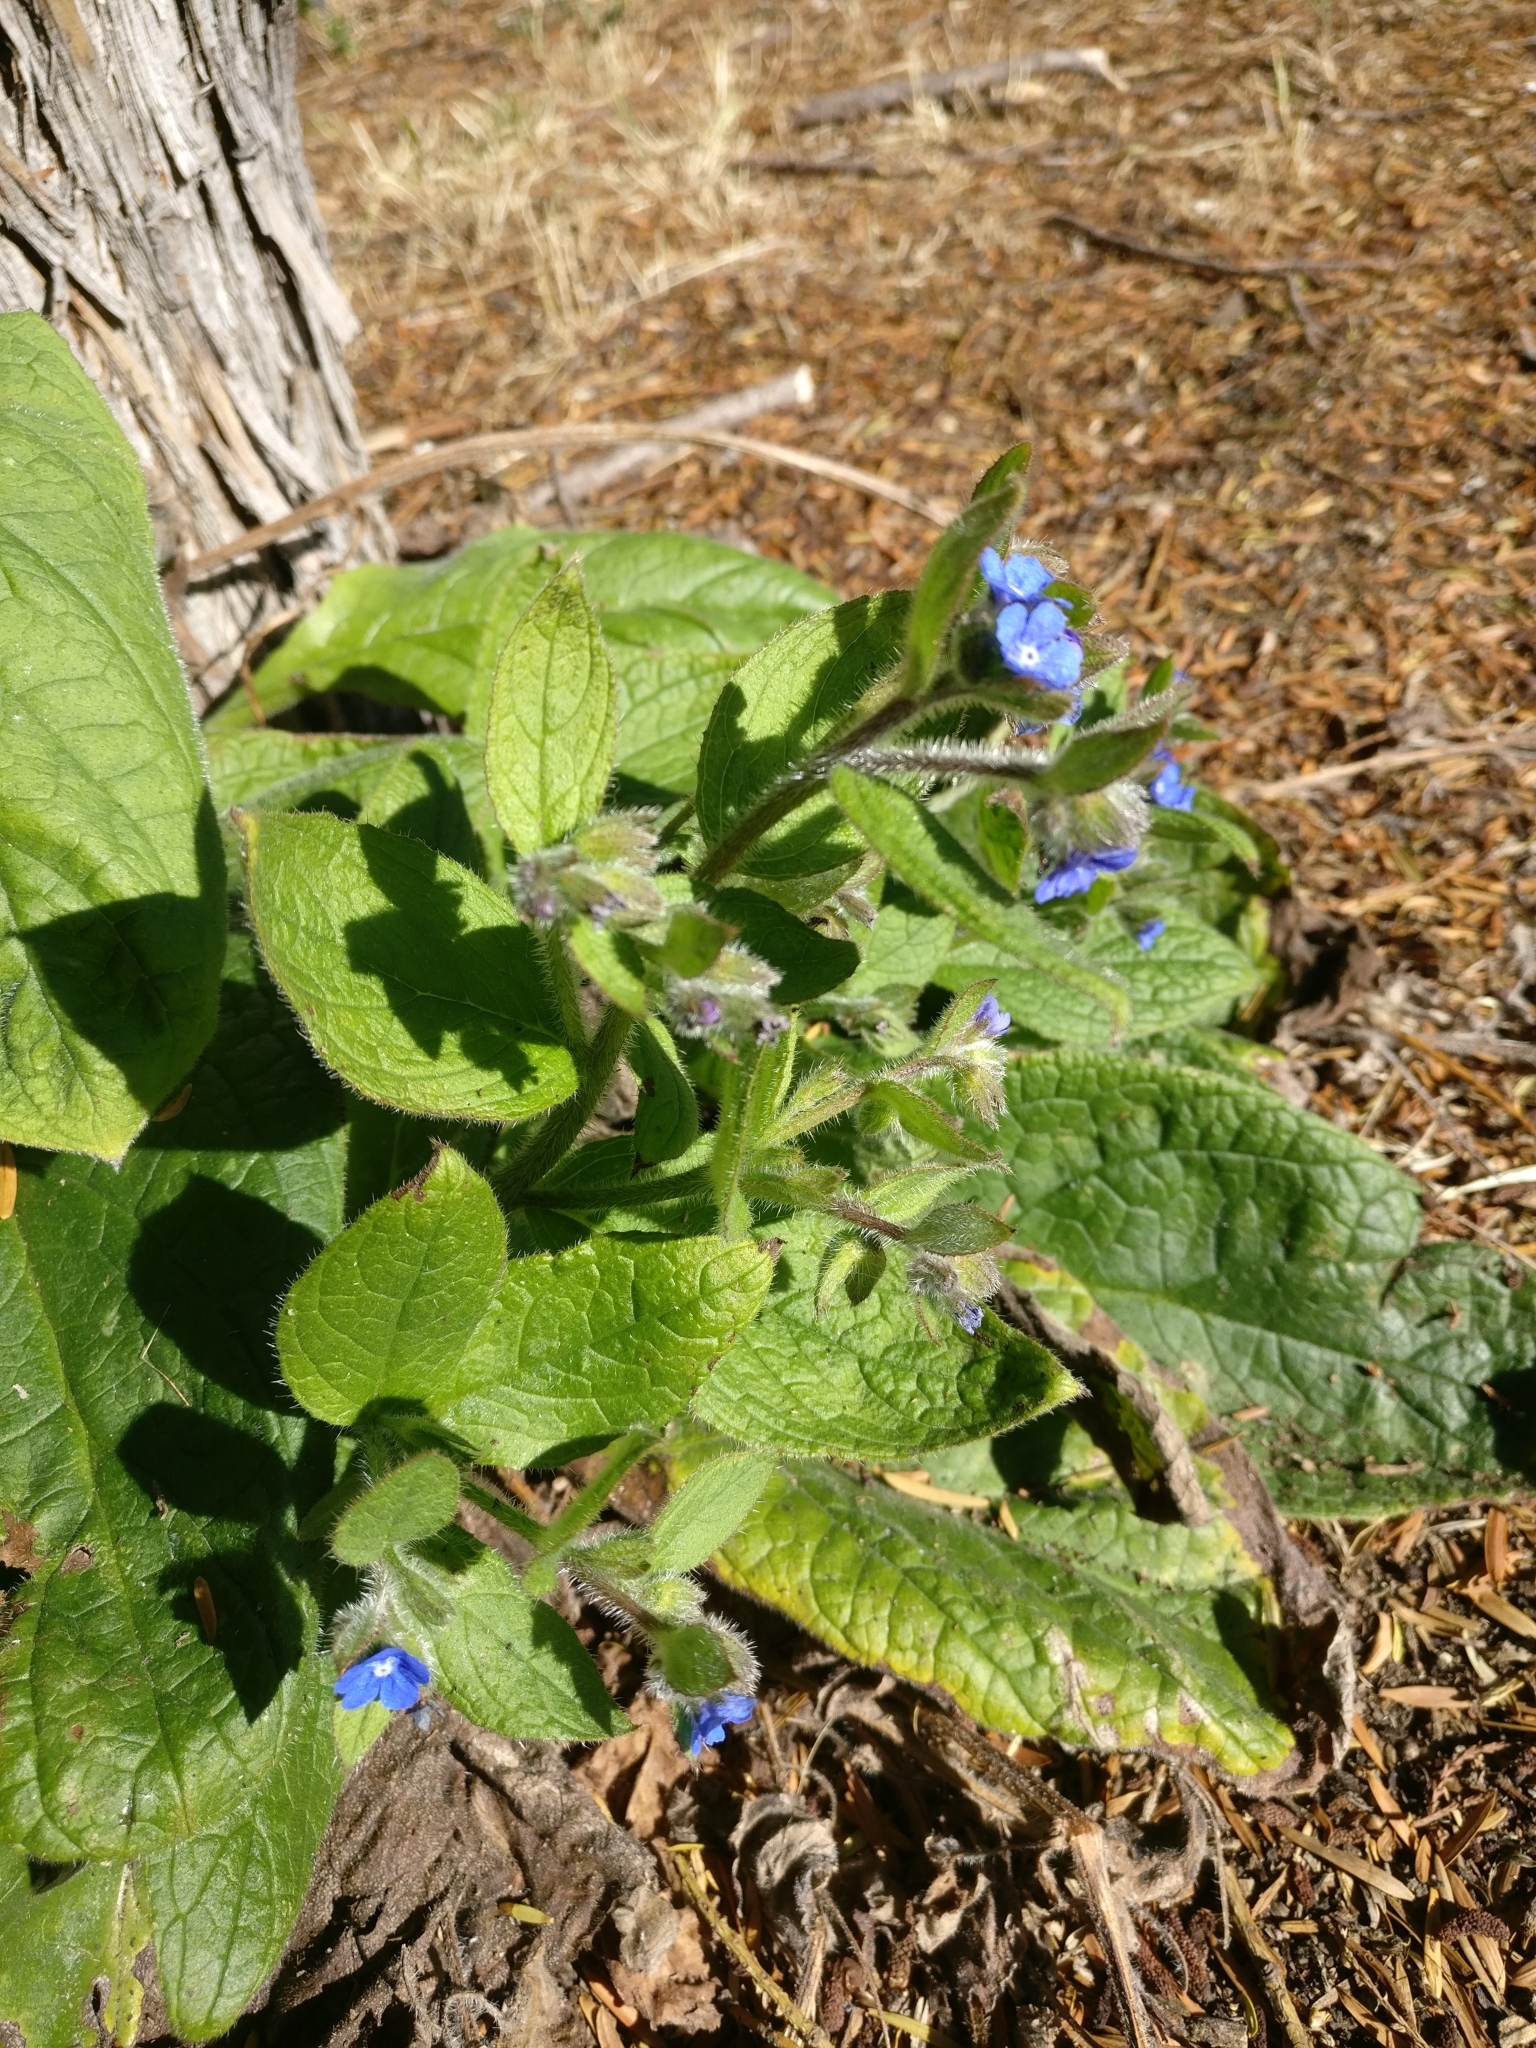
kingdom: Plantae
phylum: Tracheophyta
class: Magnoliopsida
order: Boraginales
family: Boraginaceae
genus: Pentaglottis
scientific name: Pentaglottis sempervirens
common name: Green alkanet
